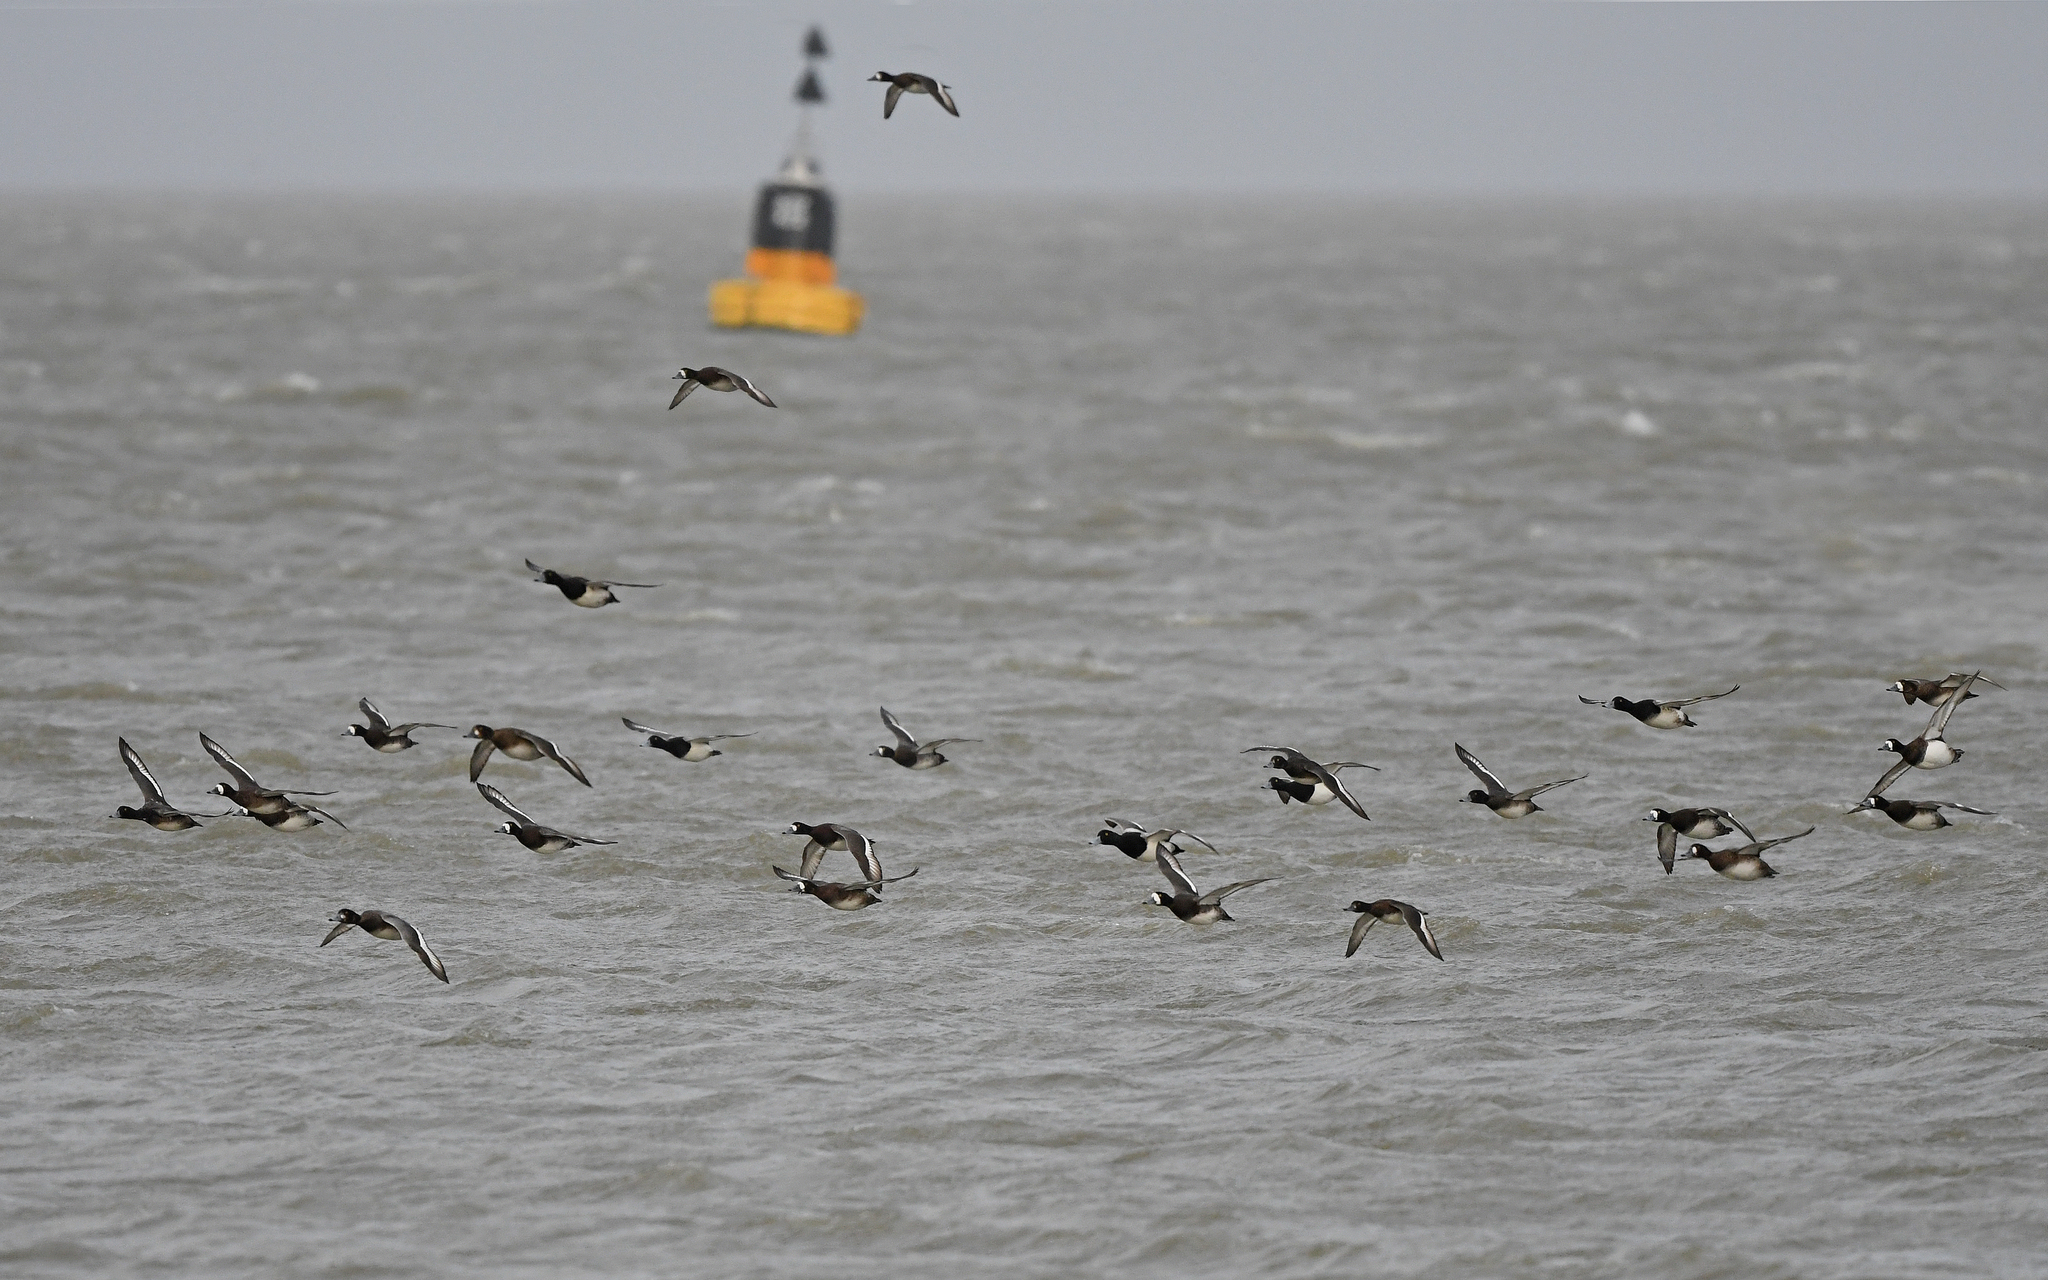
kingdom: Animalia
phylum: Chordata
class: Aves
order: Anseriformes
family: Anatidae
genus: Aythya
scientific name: Aythya marila
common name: Greater scaup
